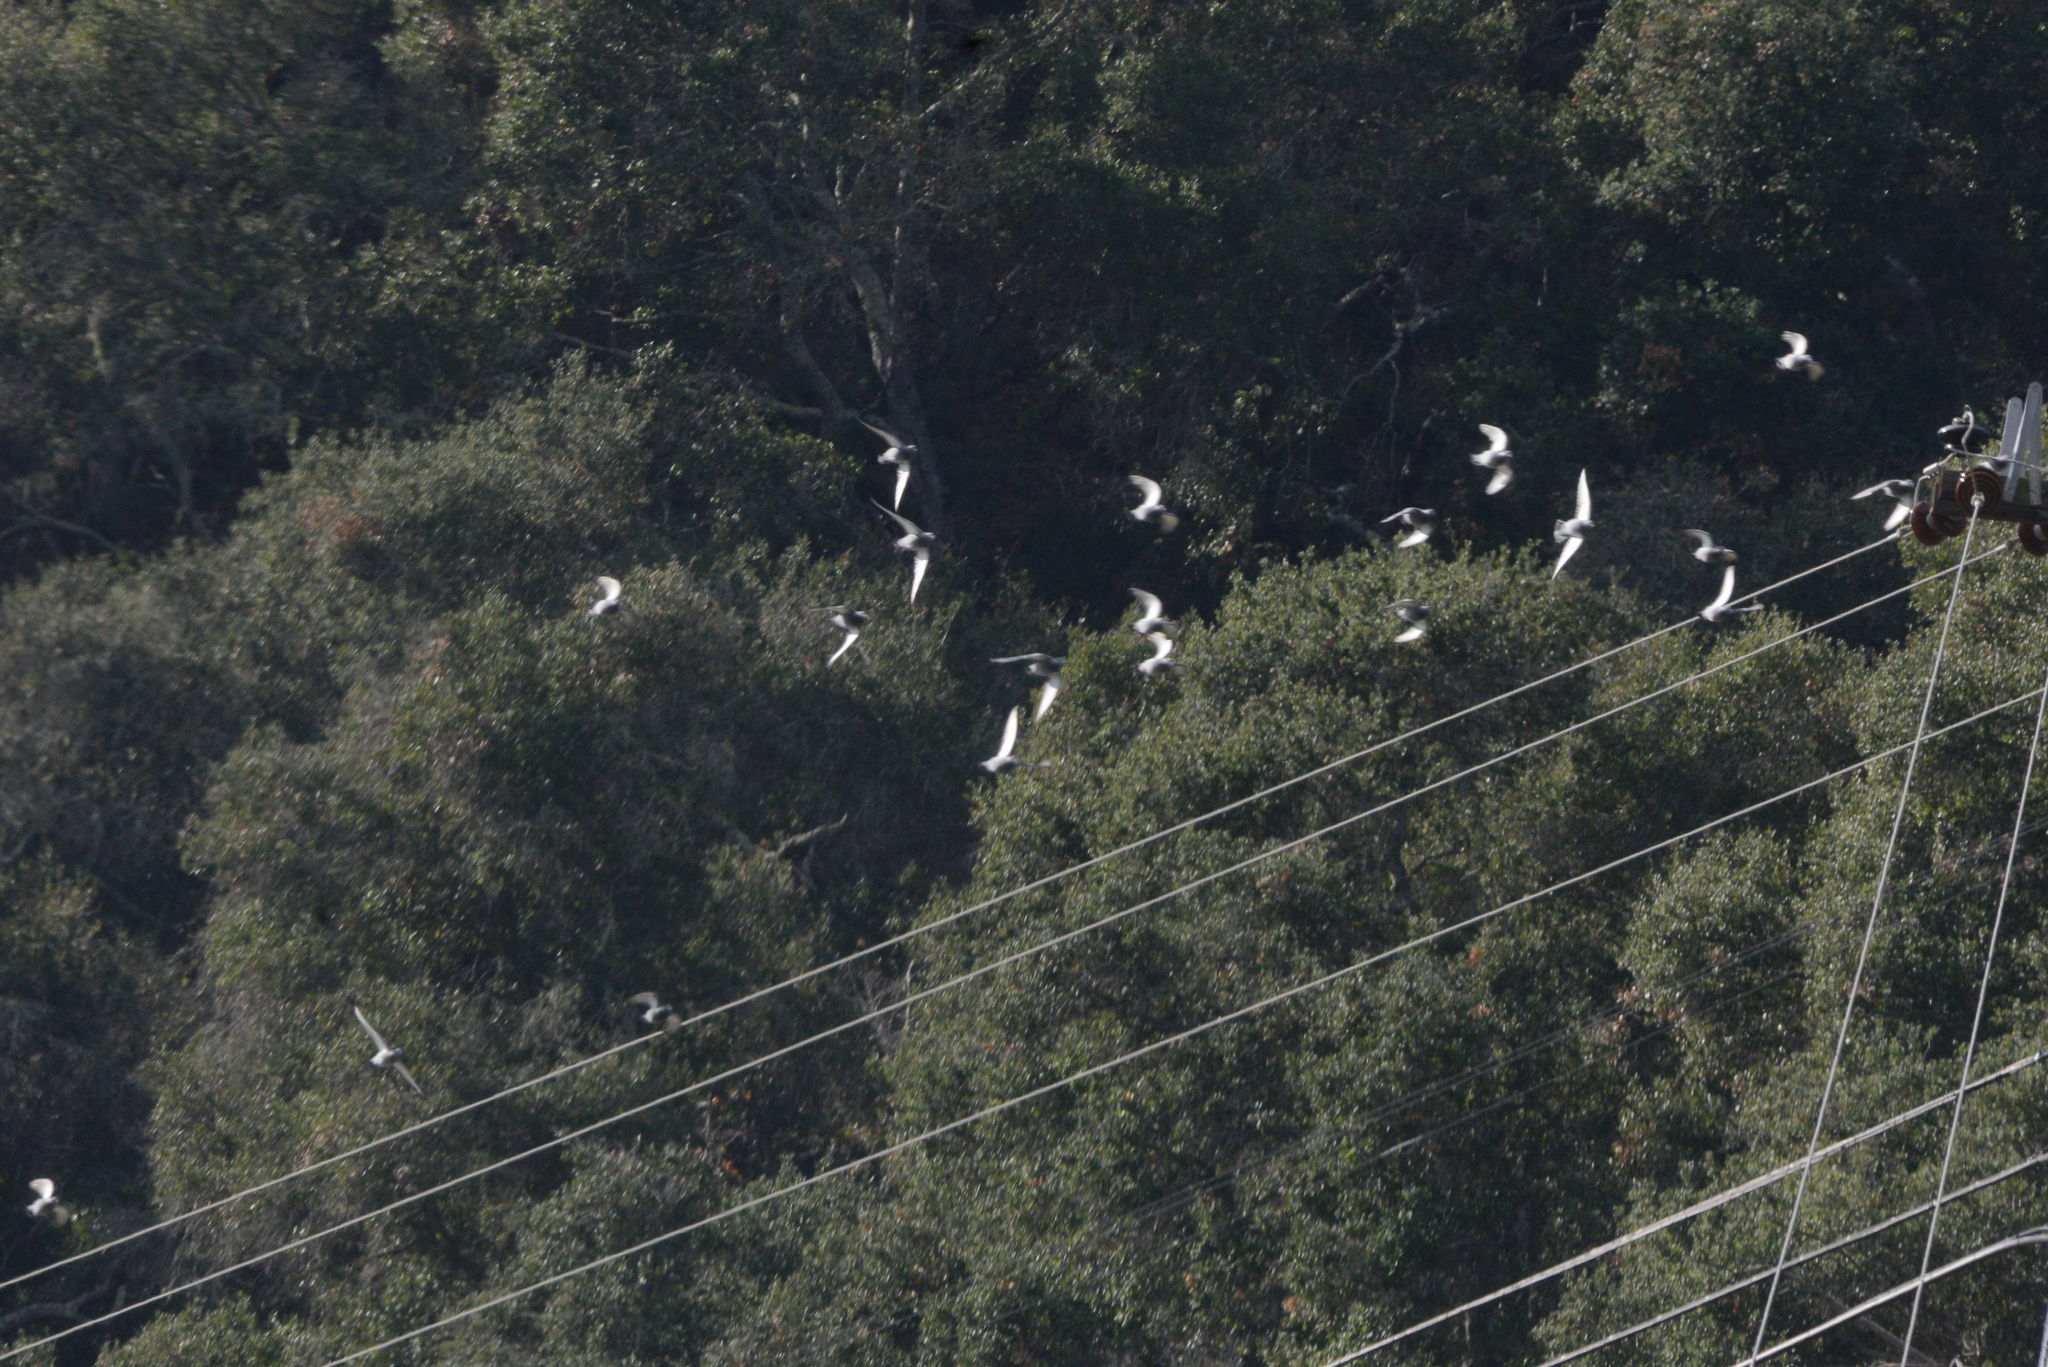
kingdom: Animalia
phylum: Chordata
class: Aves
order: Columbiformes
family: Columbidae
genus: Columba
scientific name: Columba livia
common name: Rock pigeon
